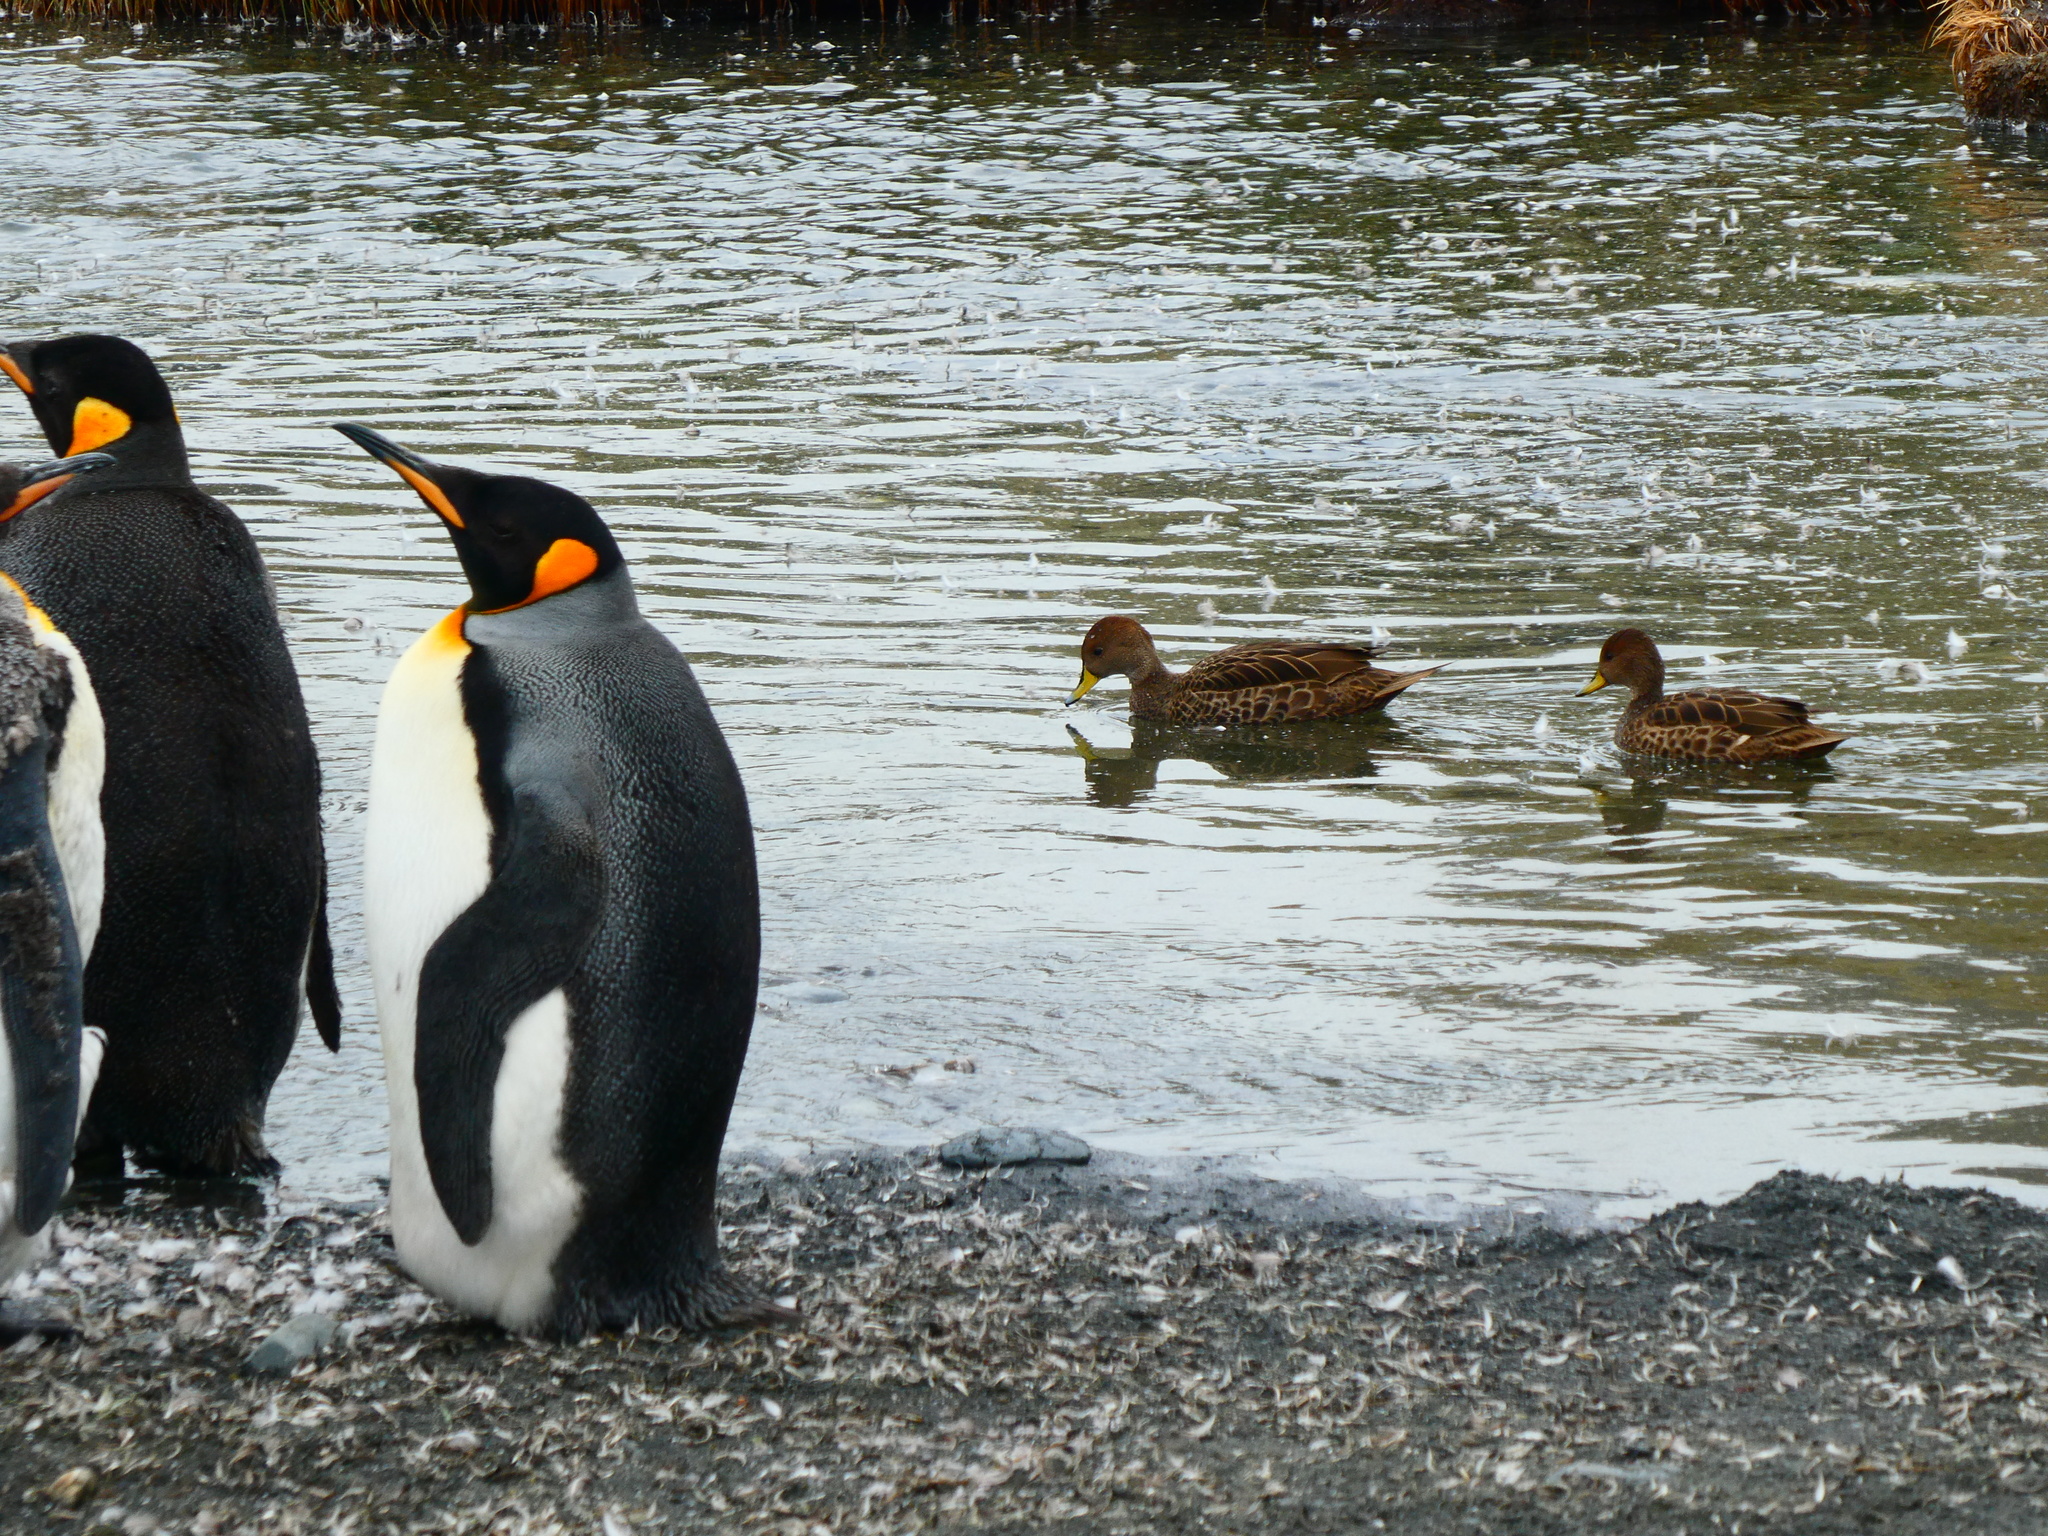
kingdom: Animalia
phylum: Chordata
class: Aves
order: Anseriformes
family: Anatidae
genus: Anas
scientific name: Anas georgica
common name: Yellow-billed pintail
